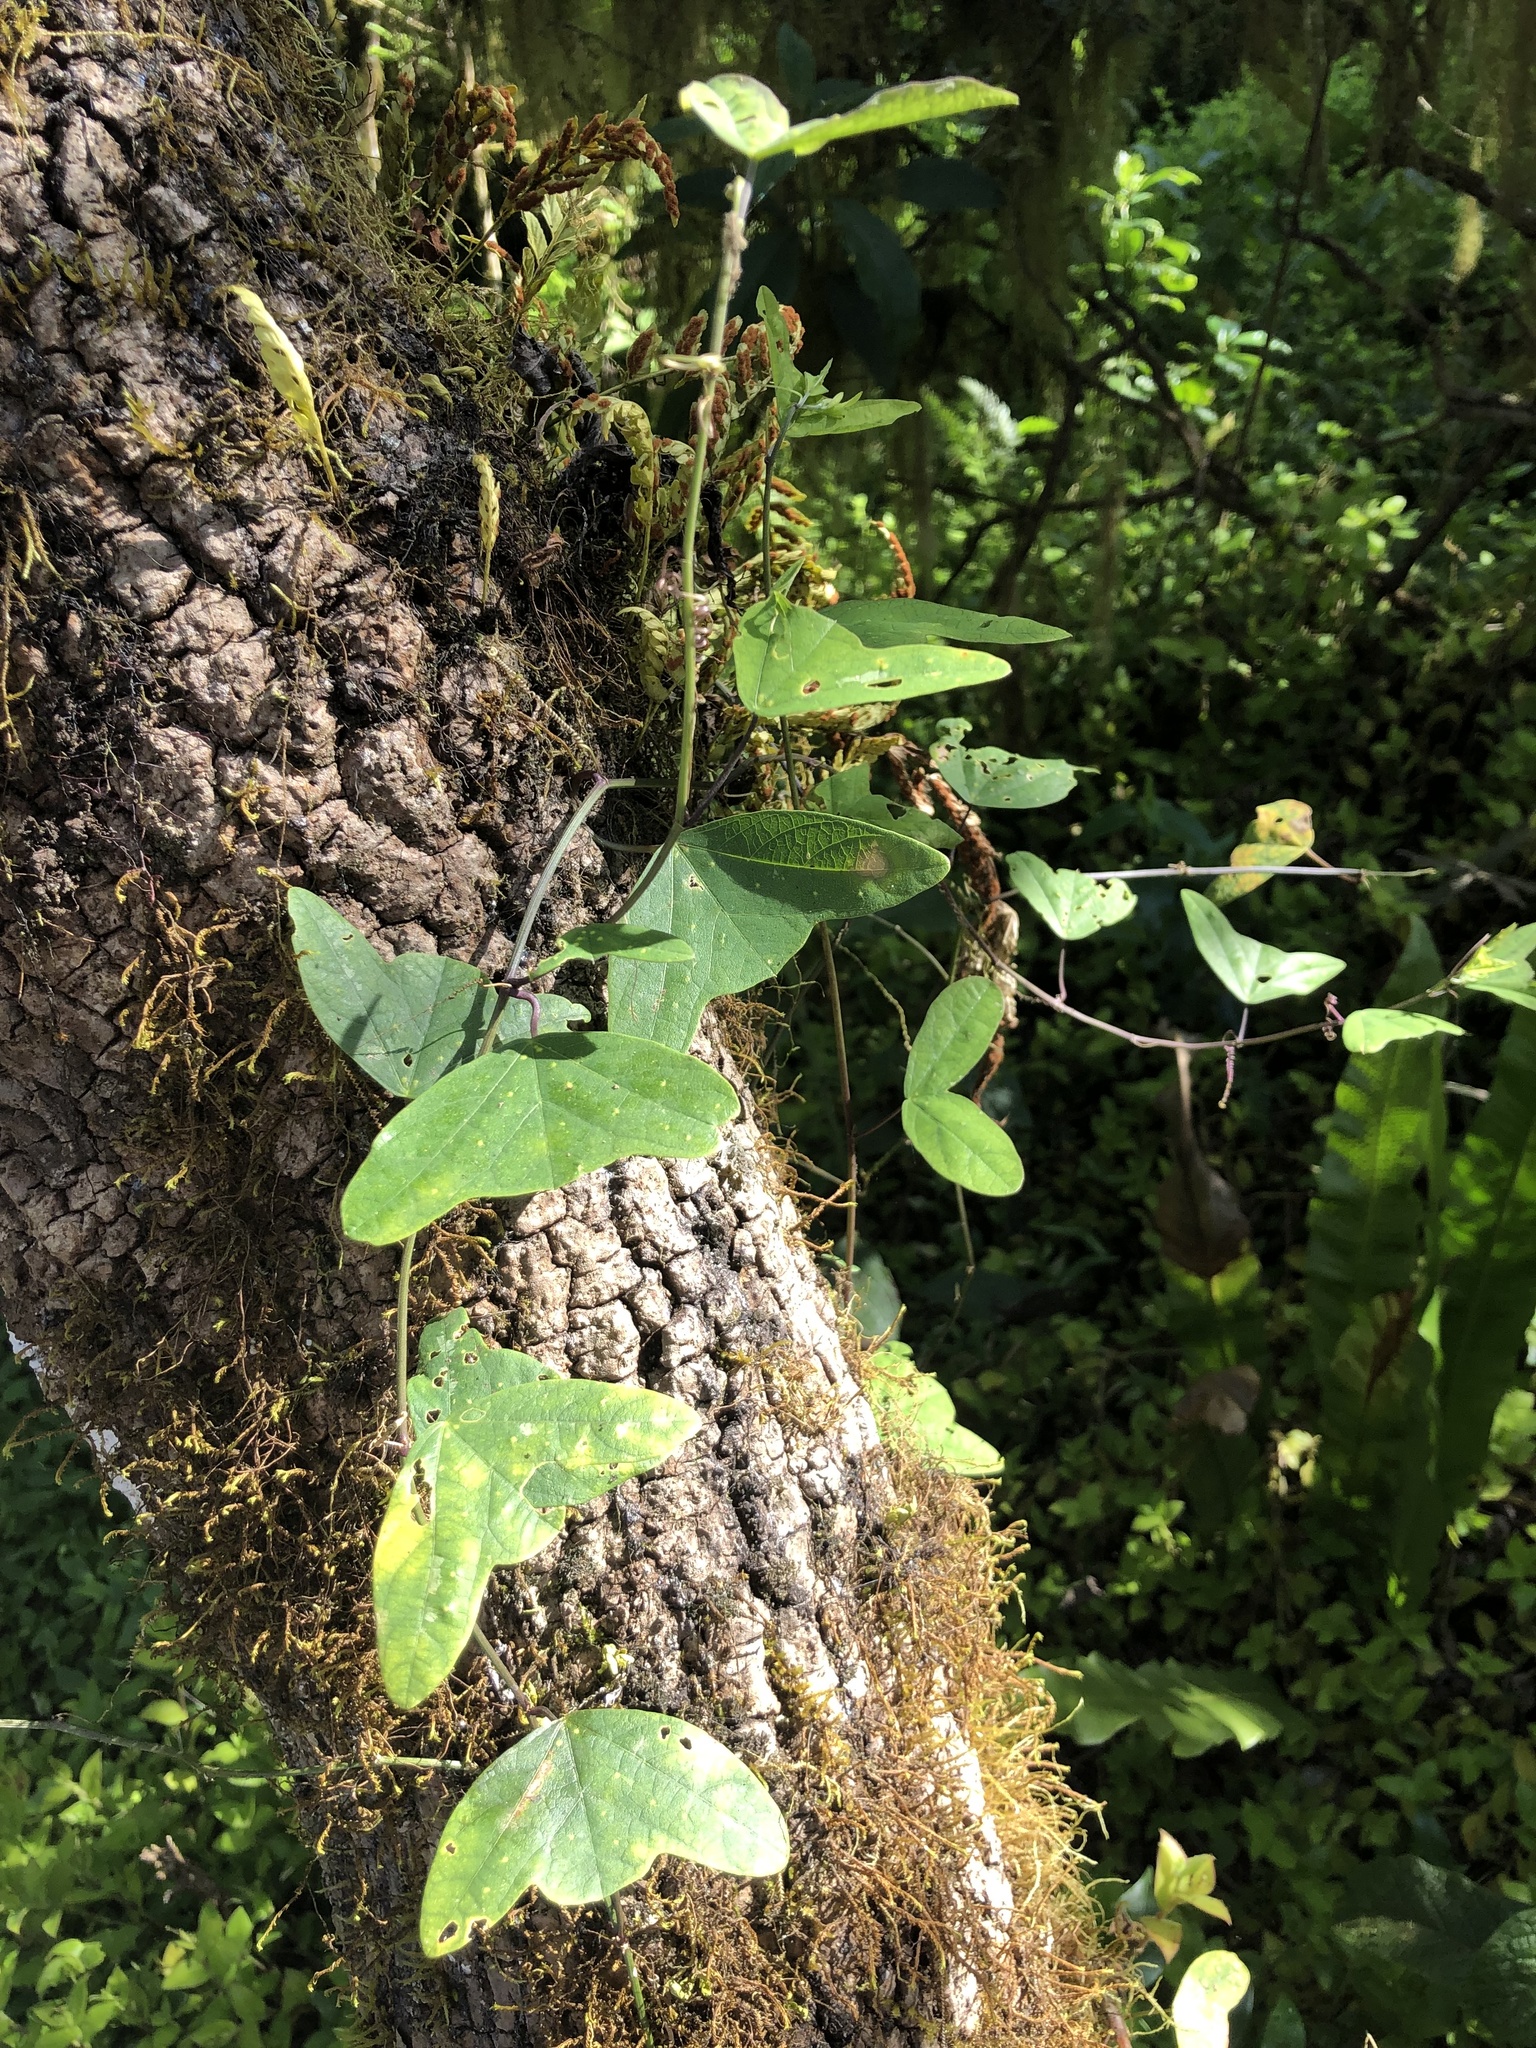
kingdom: Plantae
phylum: Tracheophyta
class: Magnoliopsida
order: Malpighiales
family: Passifloraceae
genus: Passiflora
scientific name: Passiflora colinvauxii
